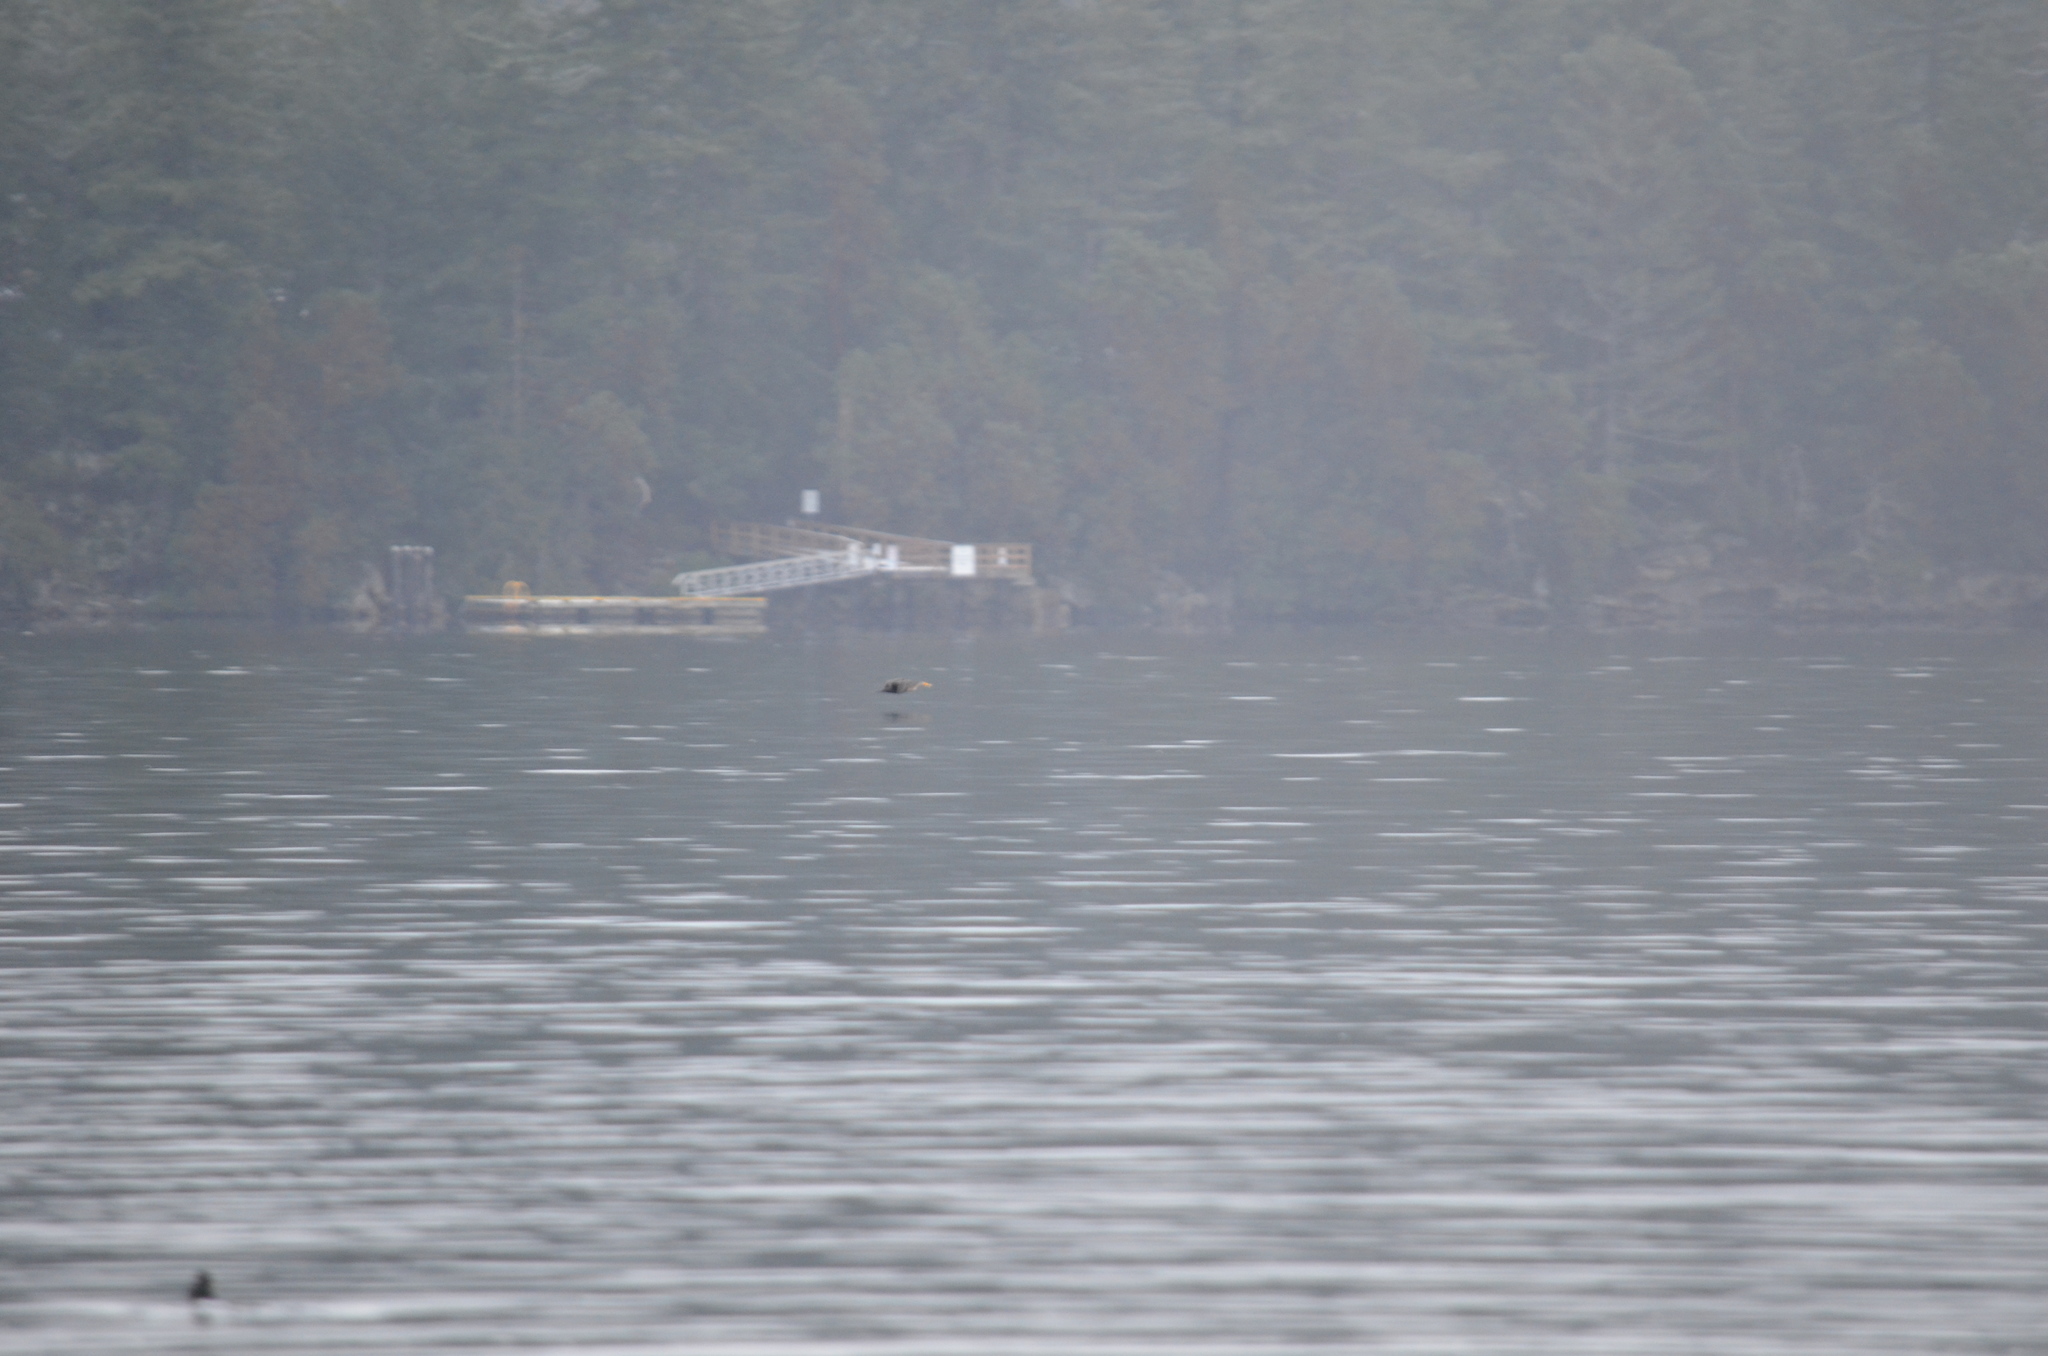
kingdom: Animalia
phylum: Chordata
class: Aves
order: Suliformes
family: Phalacrocoracidae
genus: Phalacrocorax
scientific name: Phalacrocorax auritus
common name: Double-crested cormorant
